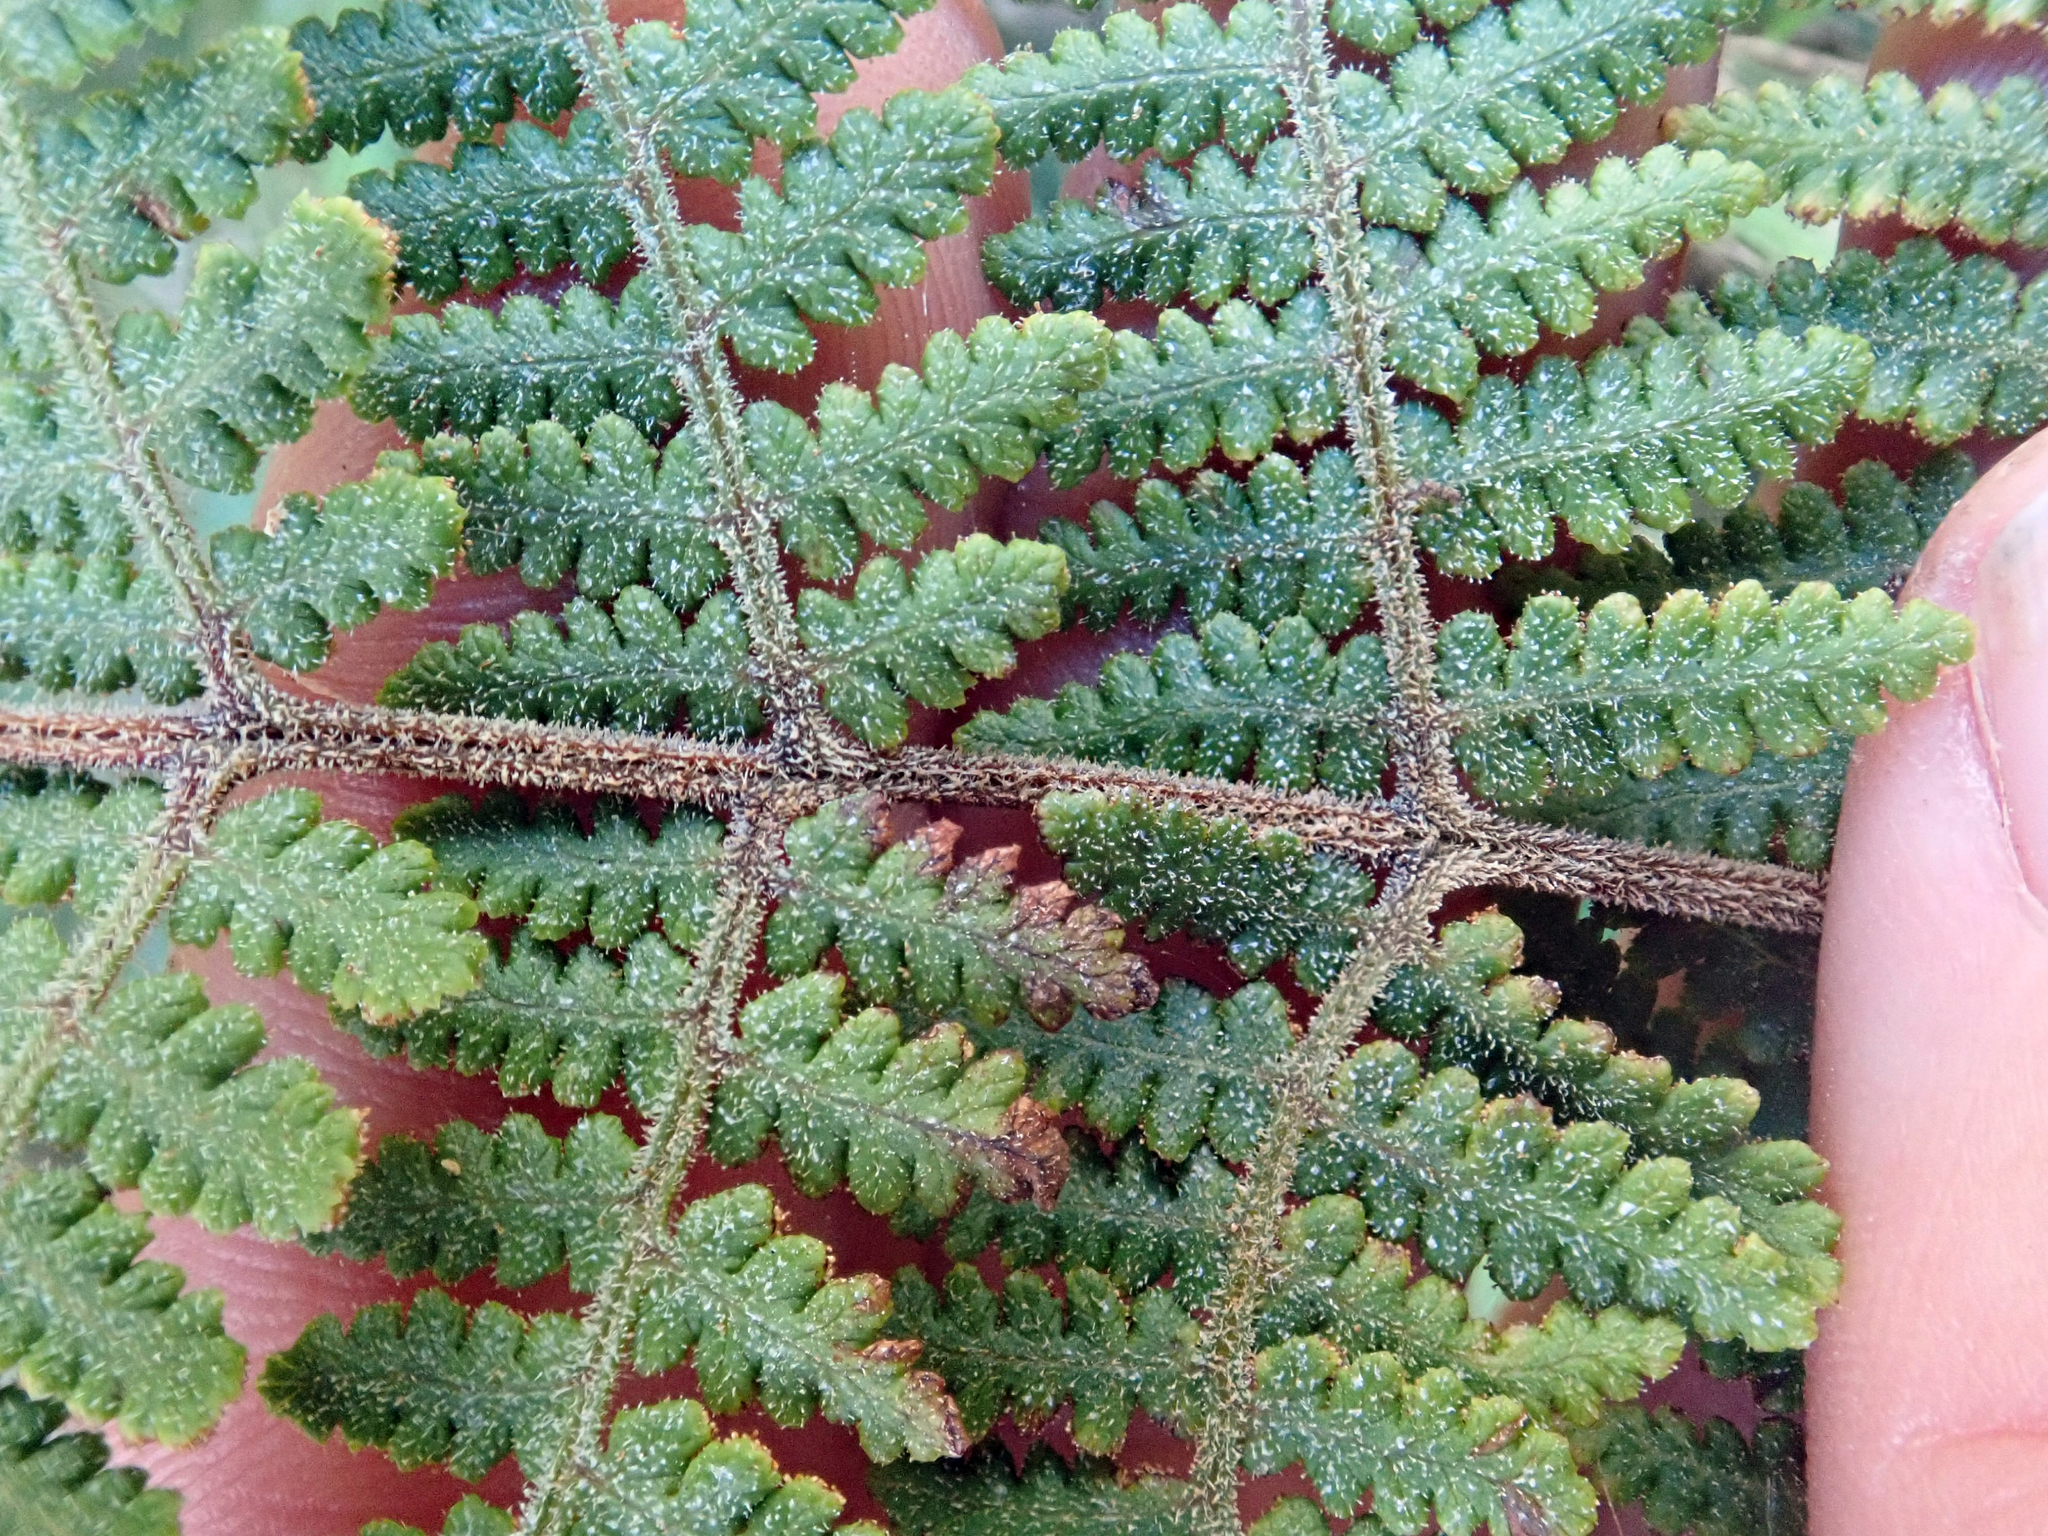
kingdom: Plantae
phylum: Tracheophyta
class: Polypodiopsida
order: Polypodiales
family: Dennstaedtiaceae
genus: Hypolepis
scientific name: Hypolepis rugosula
